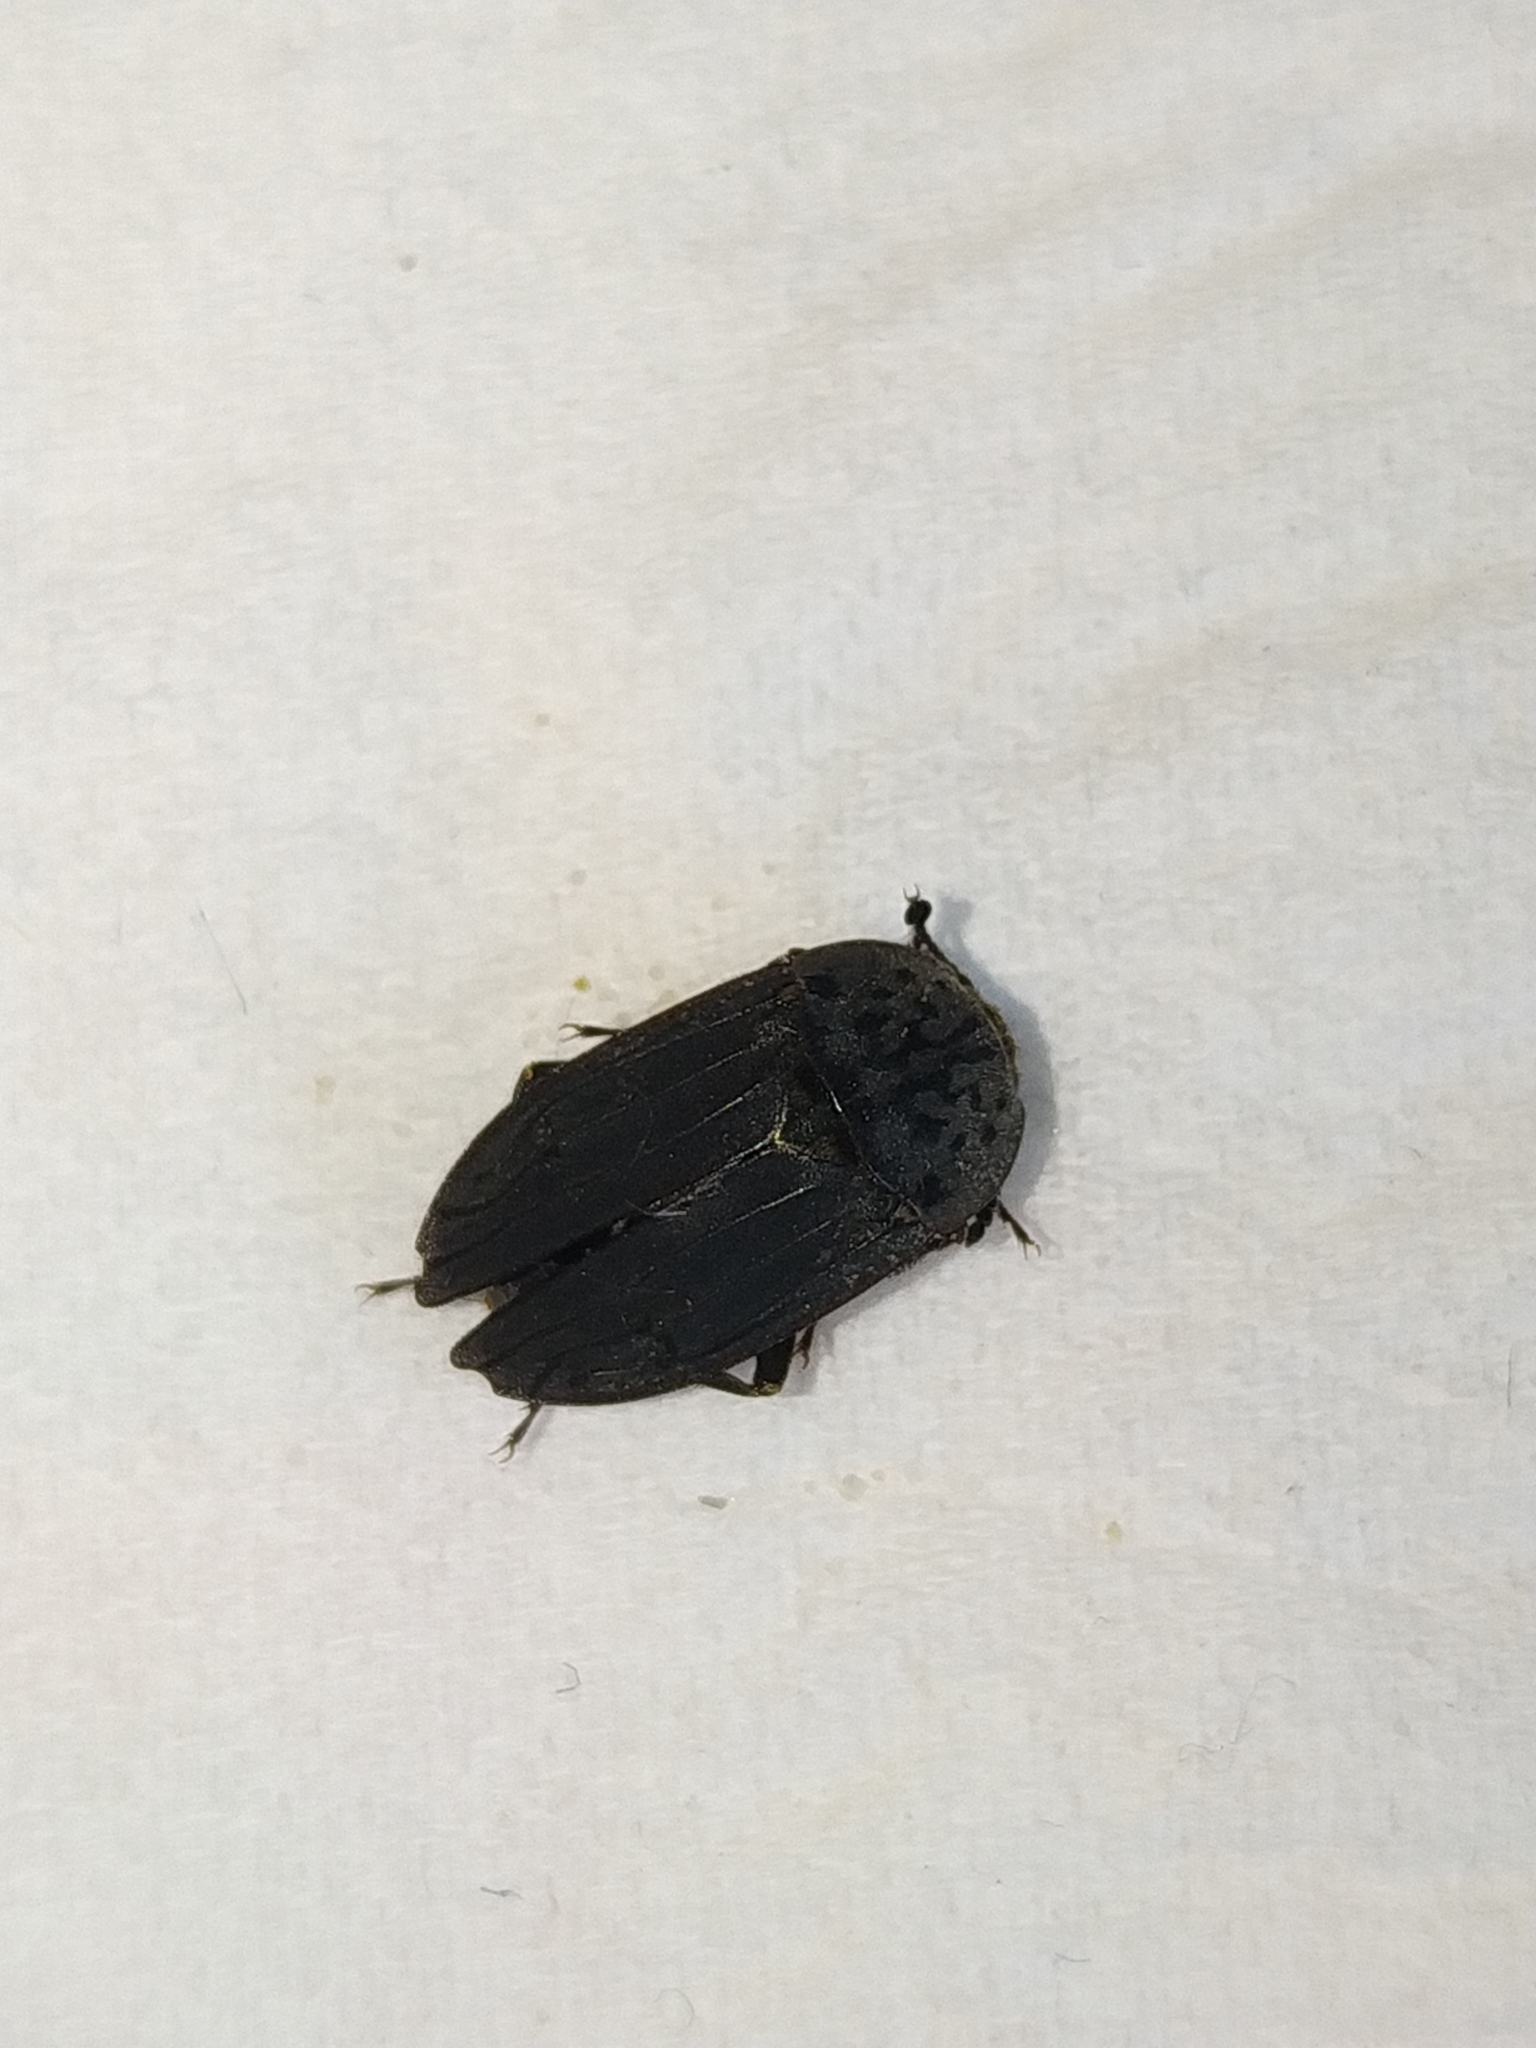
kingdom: Animalia
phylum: Arthropoda
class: Insecta
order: Coleoptera
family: Staphylinidae
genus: Thanatophilus
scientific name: Thanatophilus sinuatus
